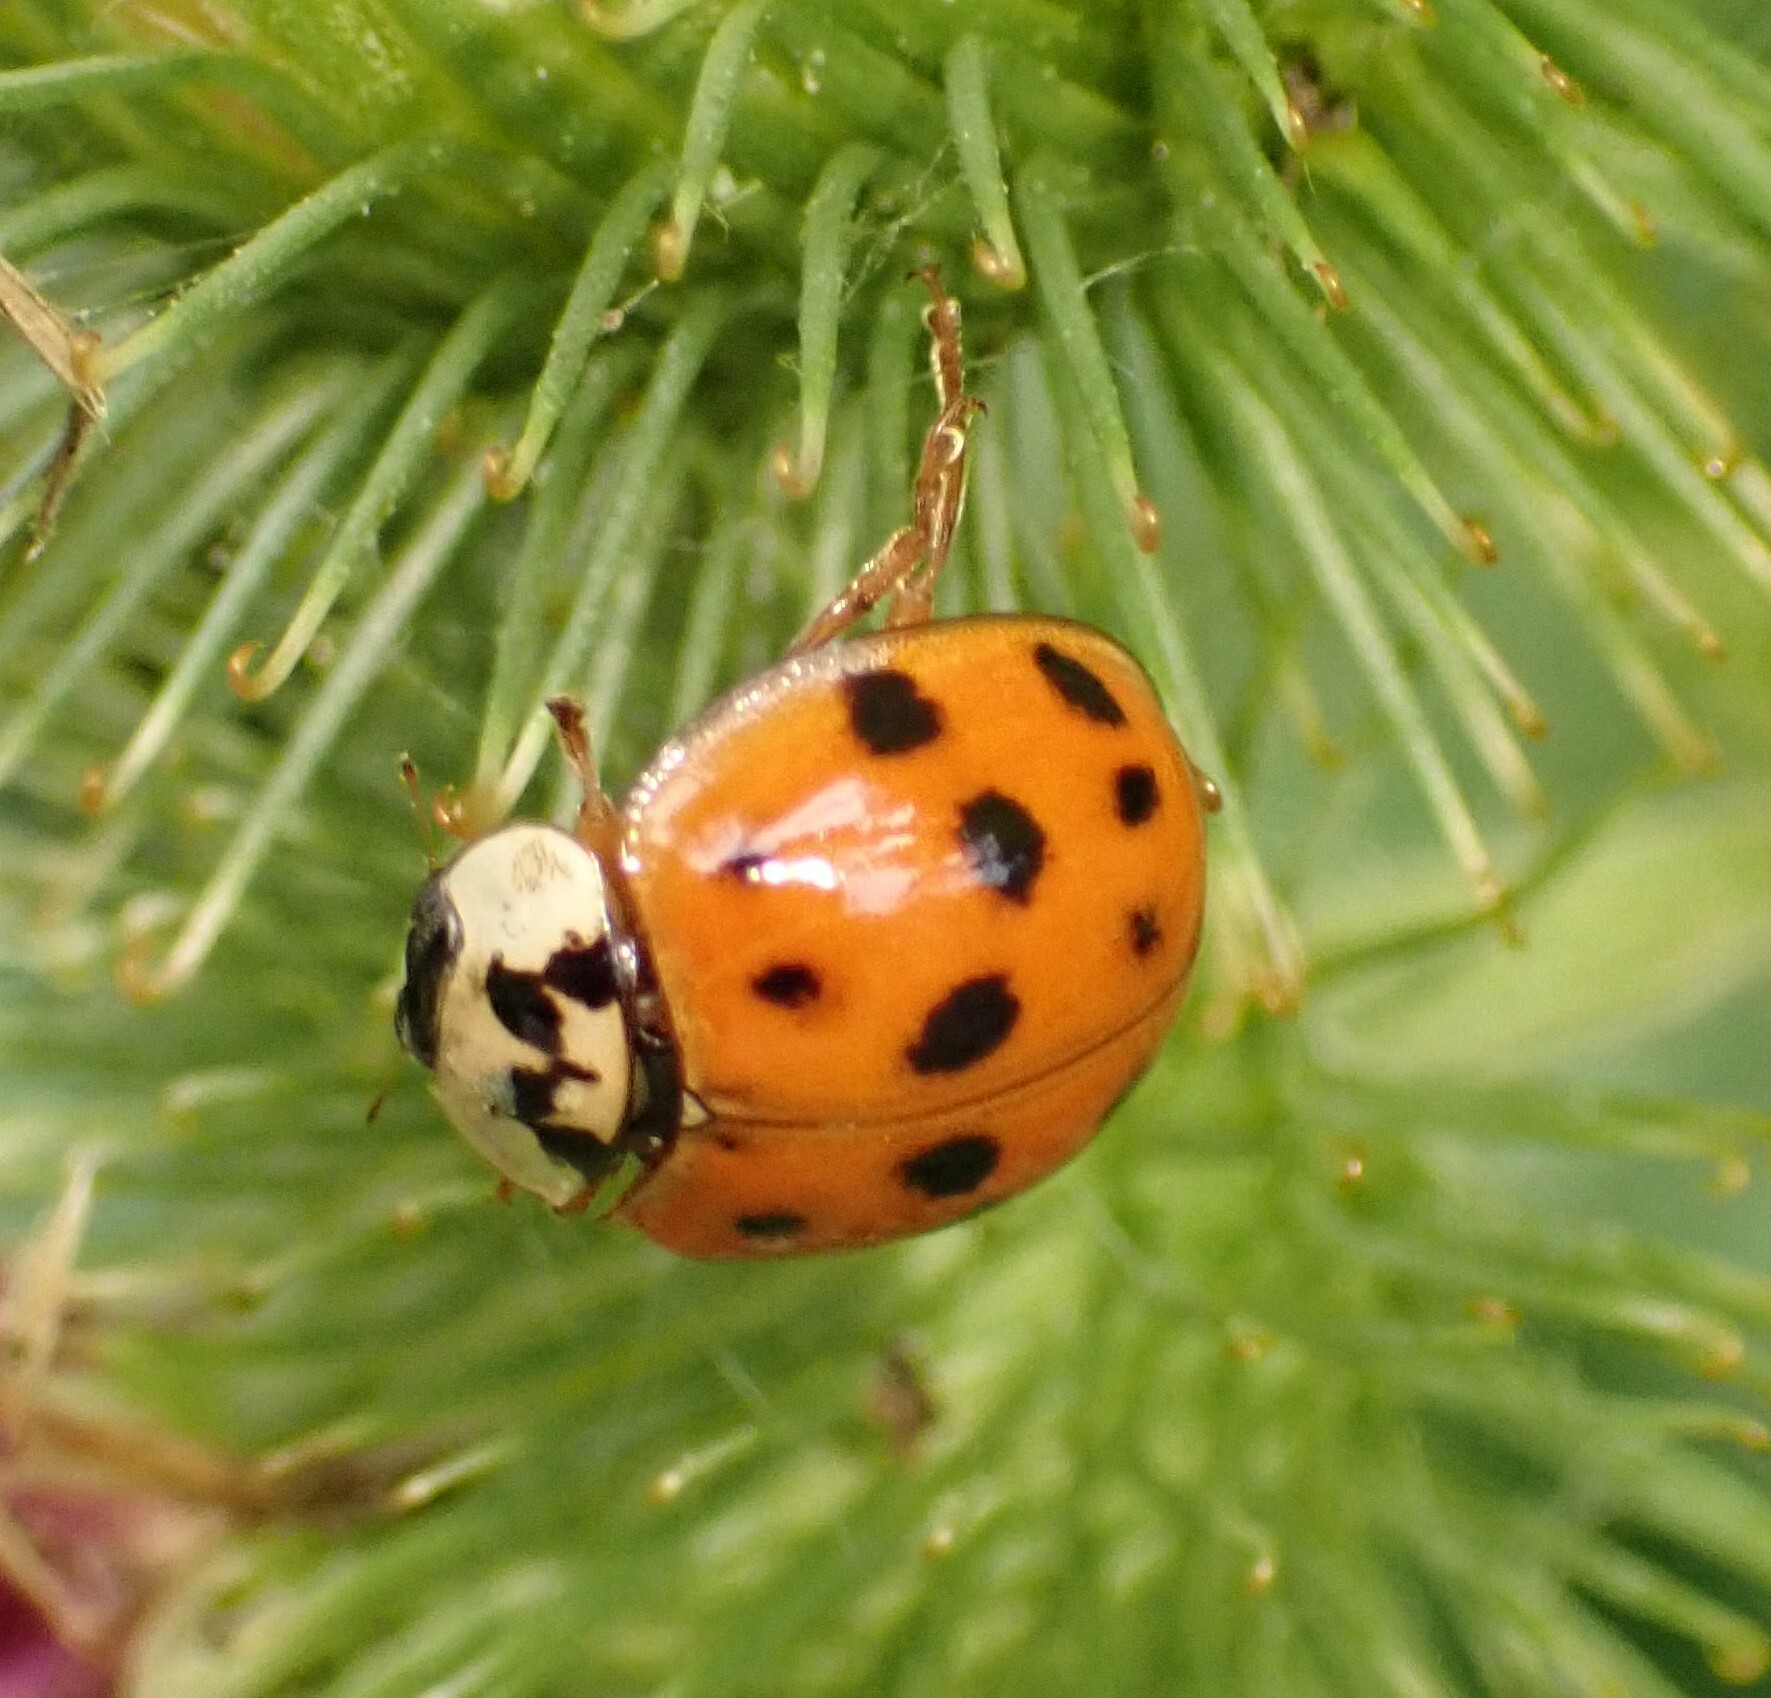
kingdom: Animalia
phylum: Arthropoda
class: Insecta
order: Coleoptera
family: Coccinellidae
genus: Harmonia
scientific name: Harmonia axyridis
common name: Harlequin ladybird
